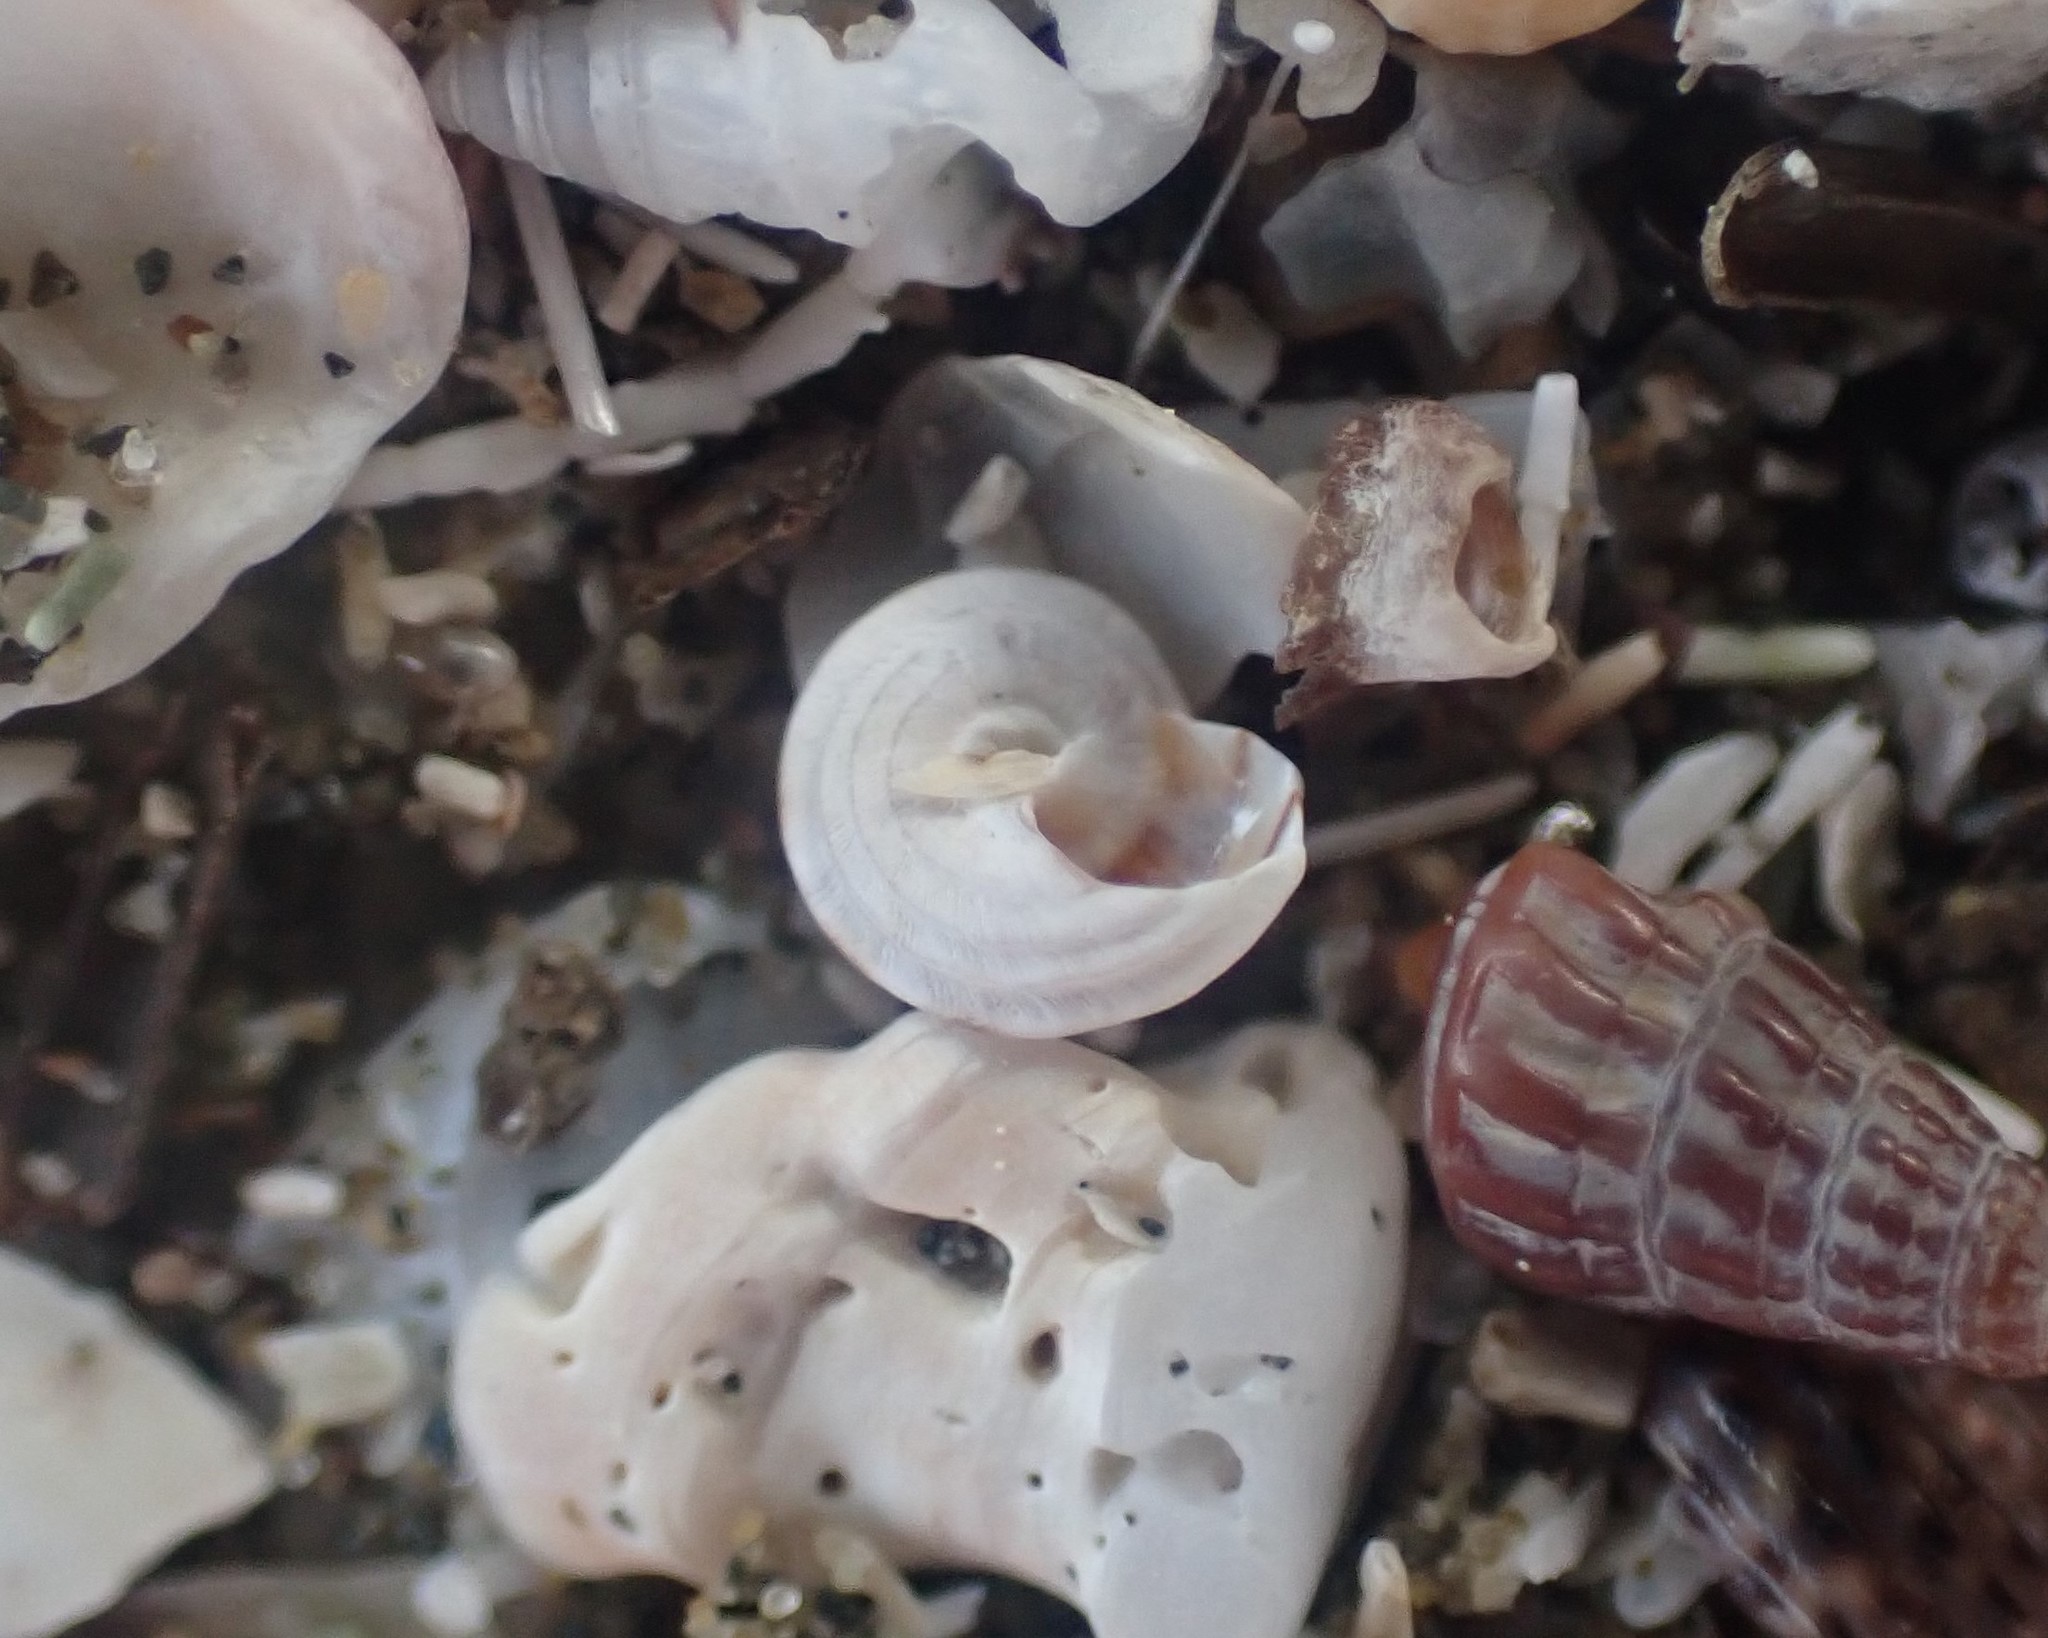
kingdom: Animalia
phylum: Mollusca
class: Gastropoda
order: Littorinimorpha
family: Littorinidae
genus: Risellopsis
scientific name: Risellopsis varia
